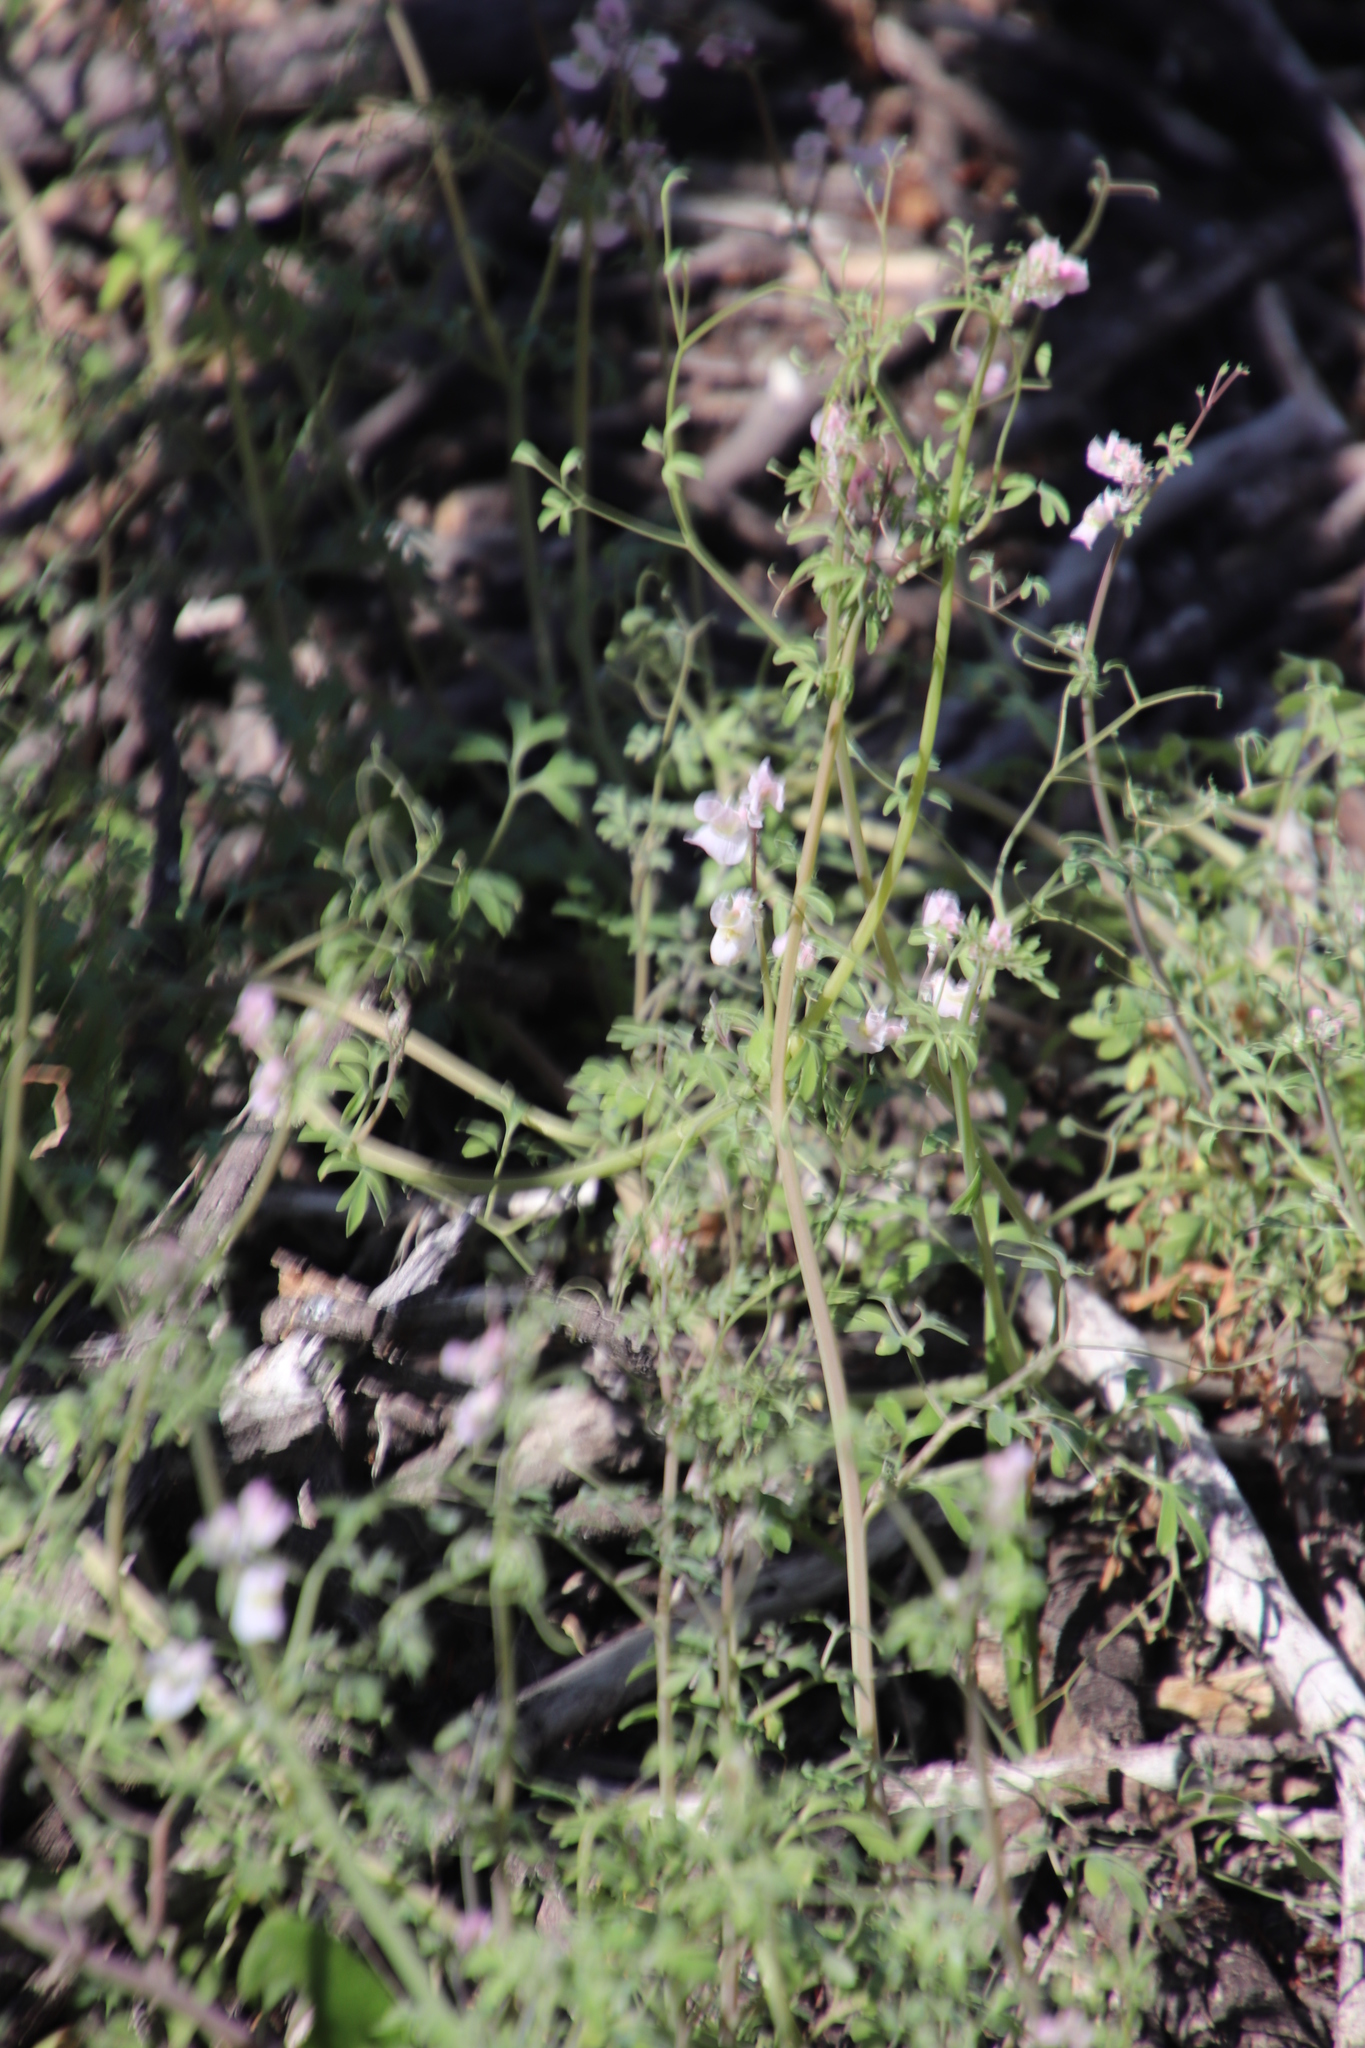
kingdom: Plantae
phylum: Tracheophyta
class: Magnoliopsida
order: Ranunculales
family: Papaveraceae
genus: Cysticapnos
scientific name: Cysticapnos vesicaria
